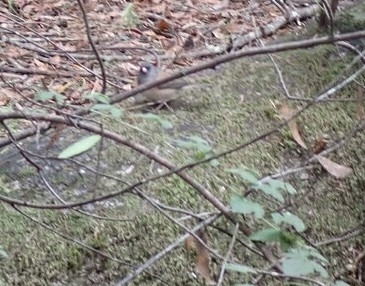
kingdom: Animalia
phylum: Chordata
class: Aves
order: Passeriformes
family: Passerellidae
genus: Junco
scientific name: Junco hyemalis
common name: Dark-eyed junco
